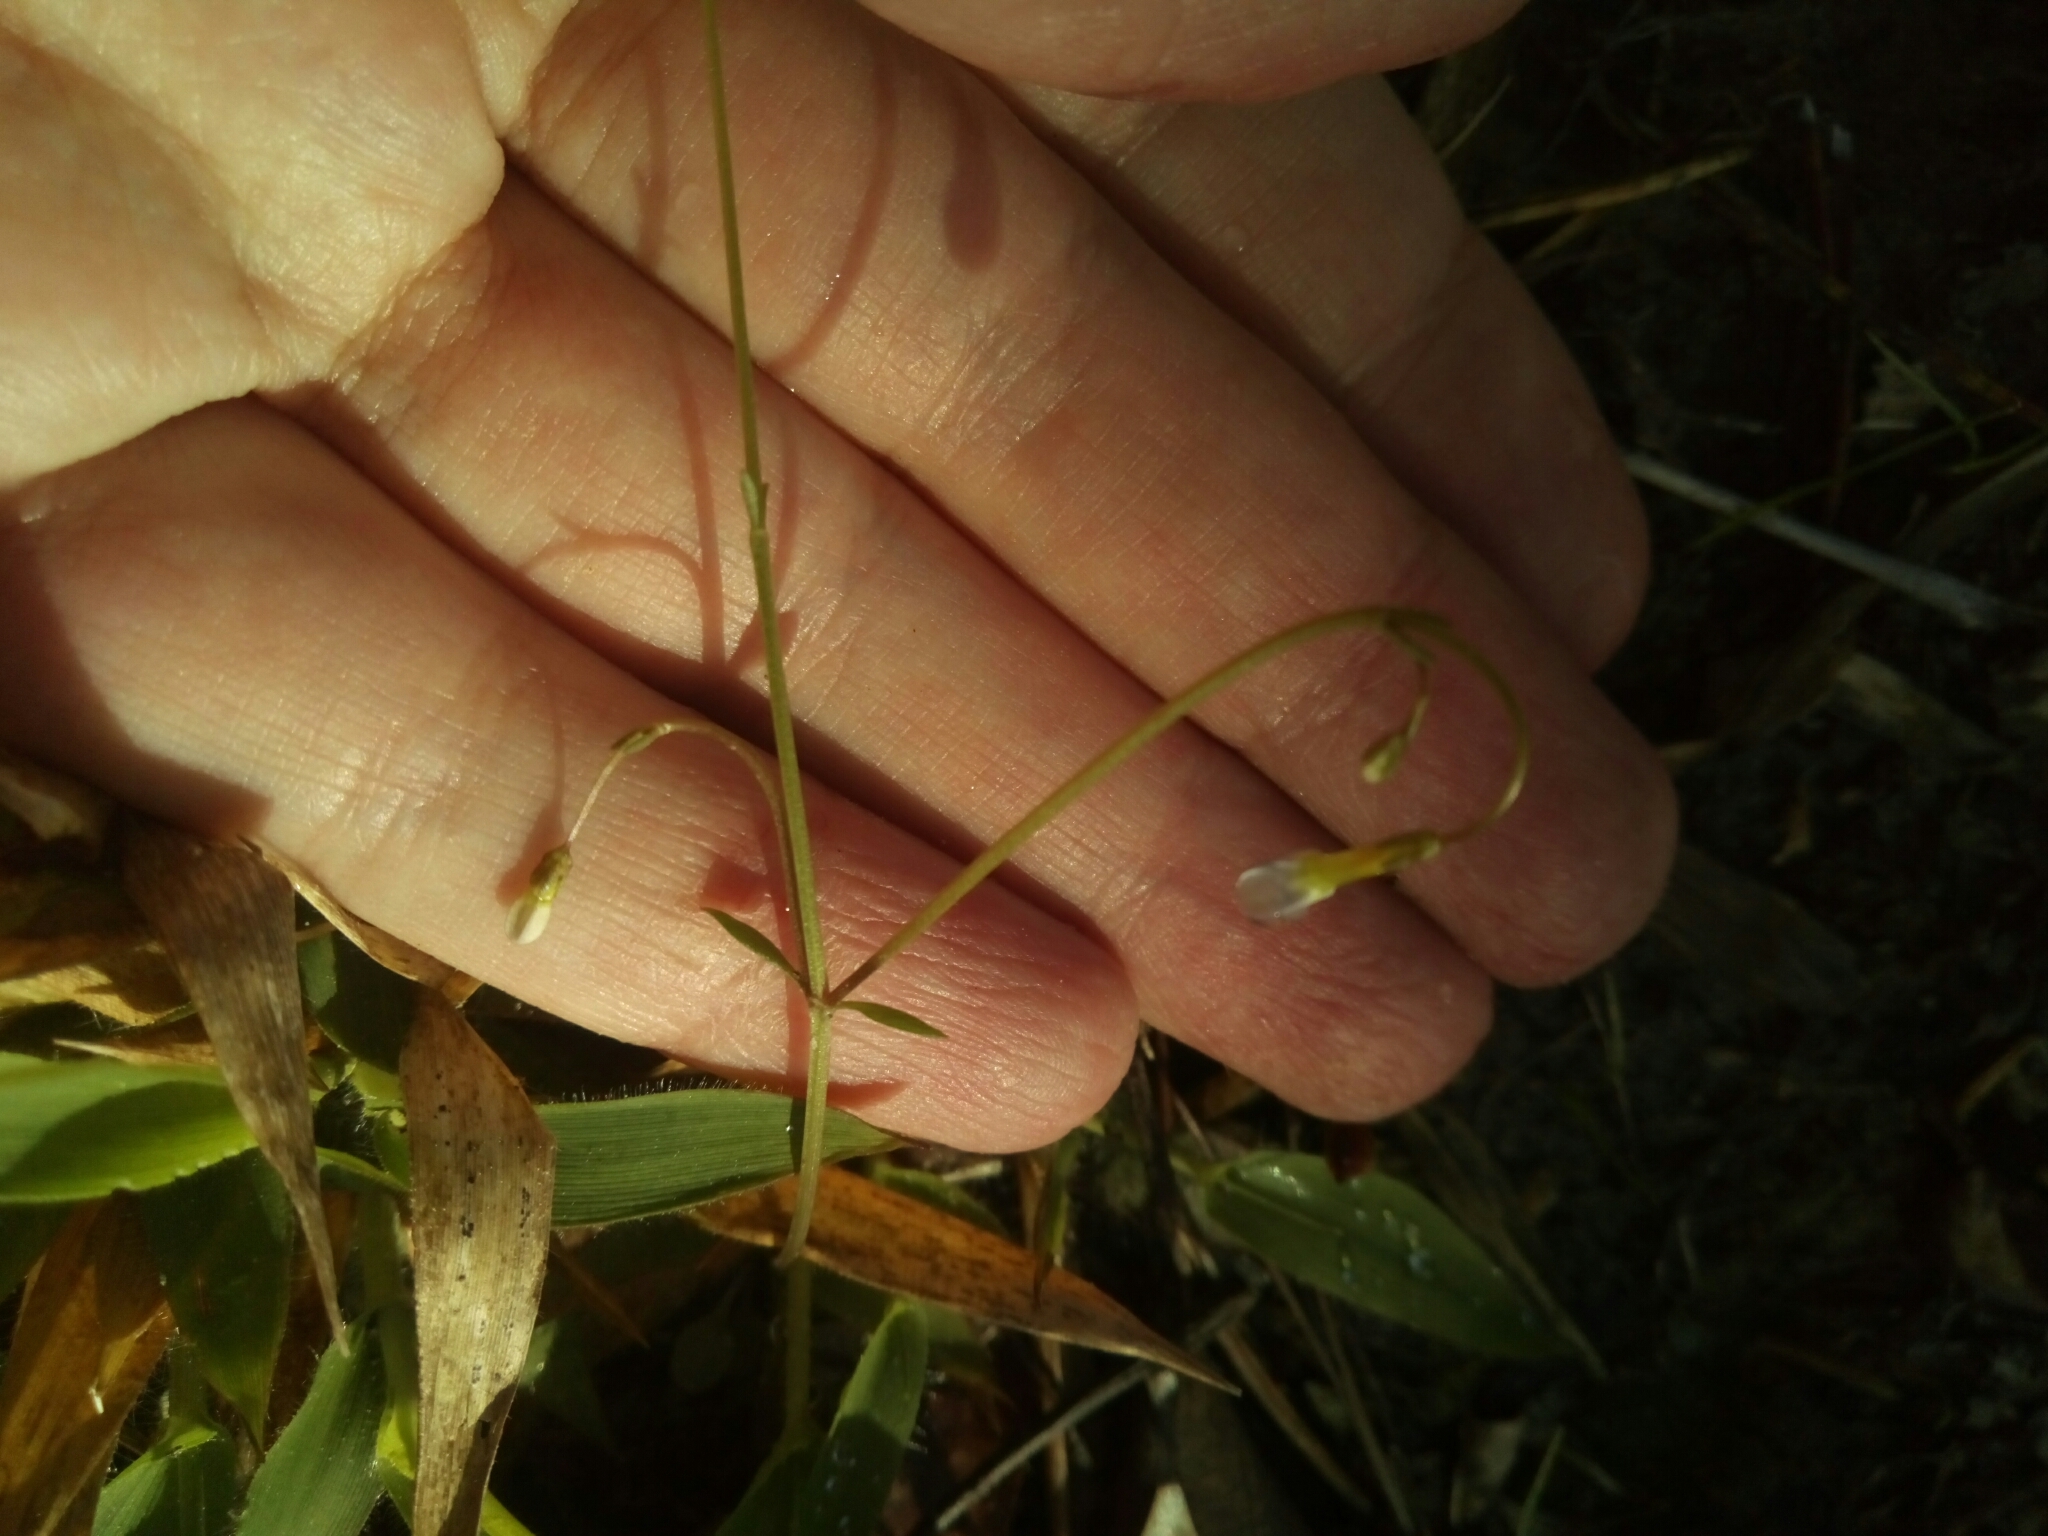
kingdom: Plantae
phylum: Tracheophyta
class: Magnoliopsida
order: Gentianales
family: Rubiaceae
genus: Houstonia
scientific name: Houstonia caerulea
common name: Bluets
